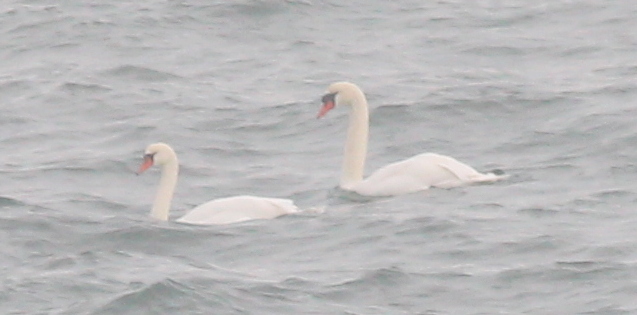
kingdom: Animalia
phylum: Chordata
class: Aves
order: Anseriformes
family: Anatidae
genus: Cygnus
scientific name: Cygnus olor
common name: Mute swan
